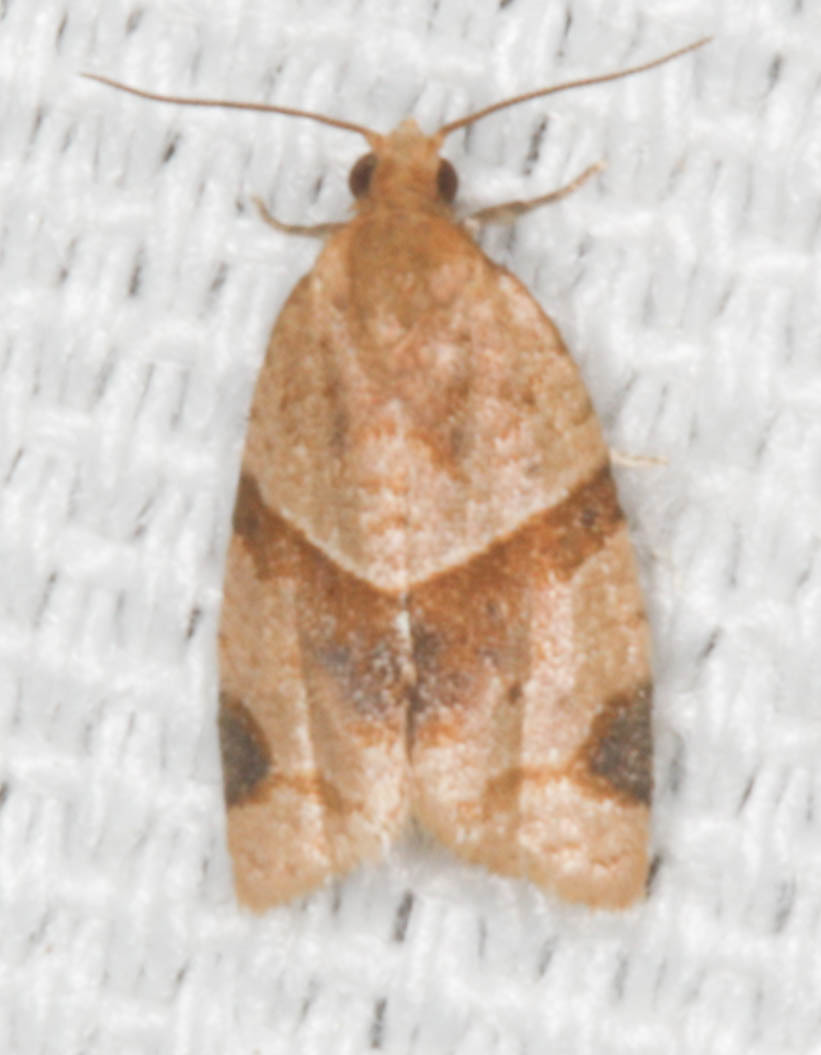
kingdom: Animalia
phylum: Arthropoda
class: Insecta
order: Lepidoptera
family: Tortricidae
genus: Clepsis
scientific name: Clepsis peritana
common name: Garden tortrix
